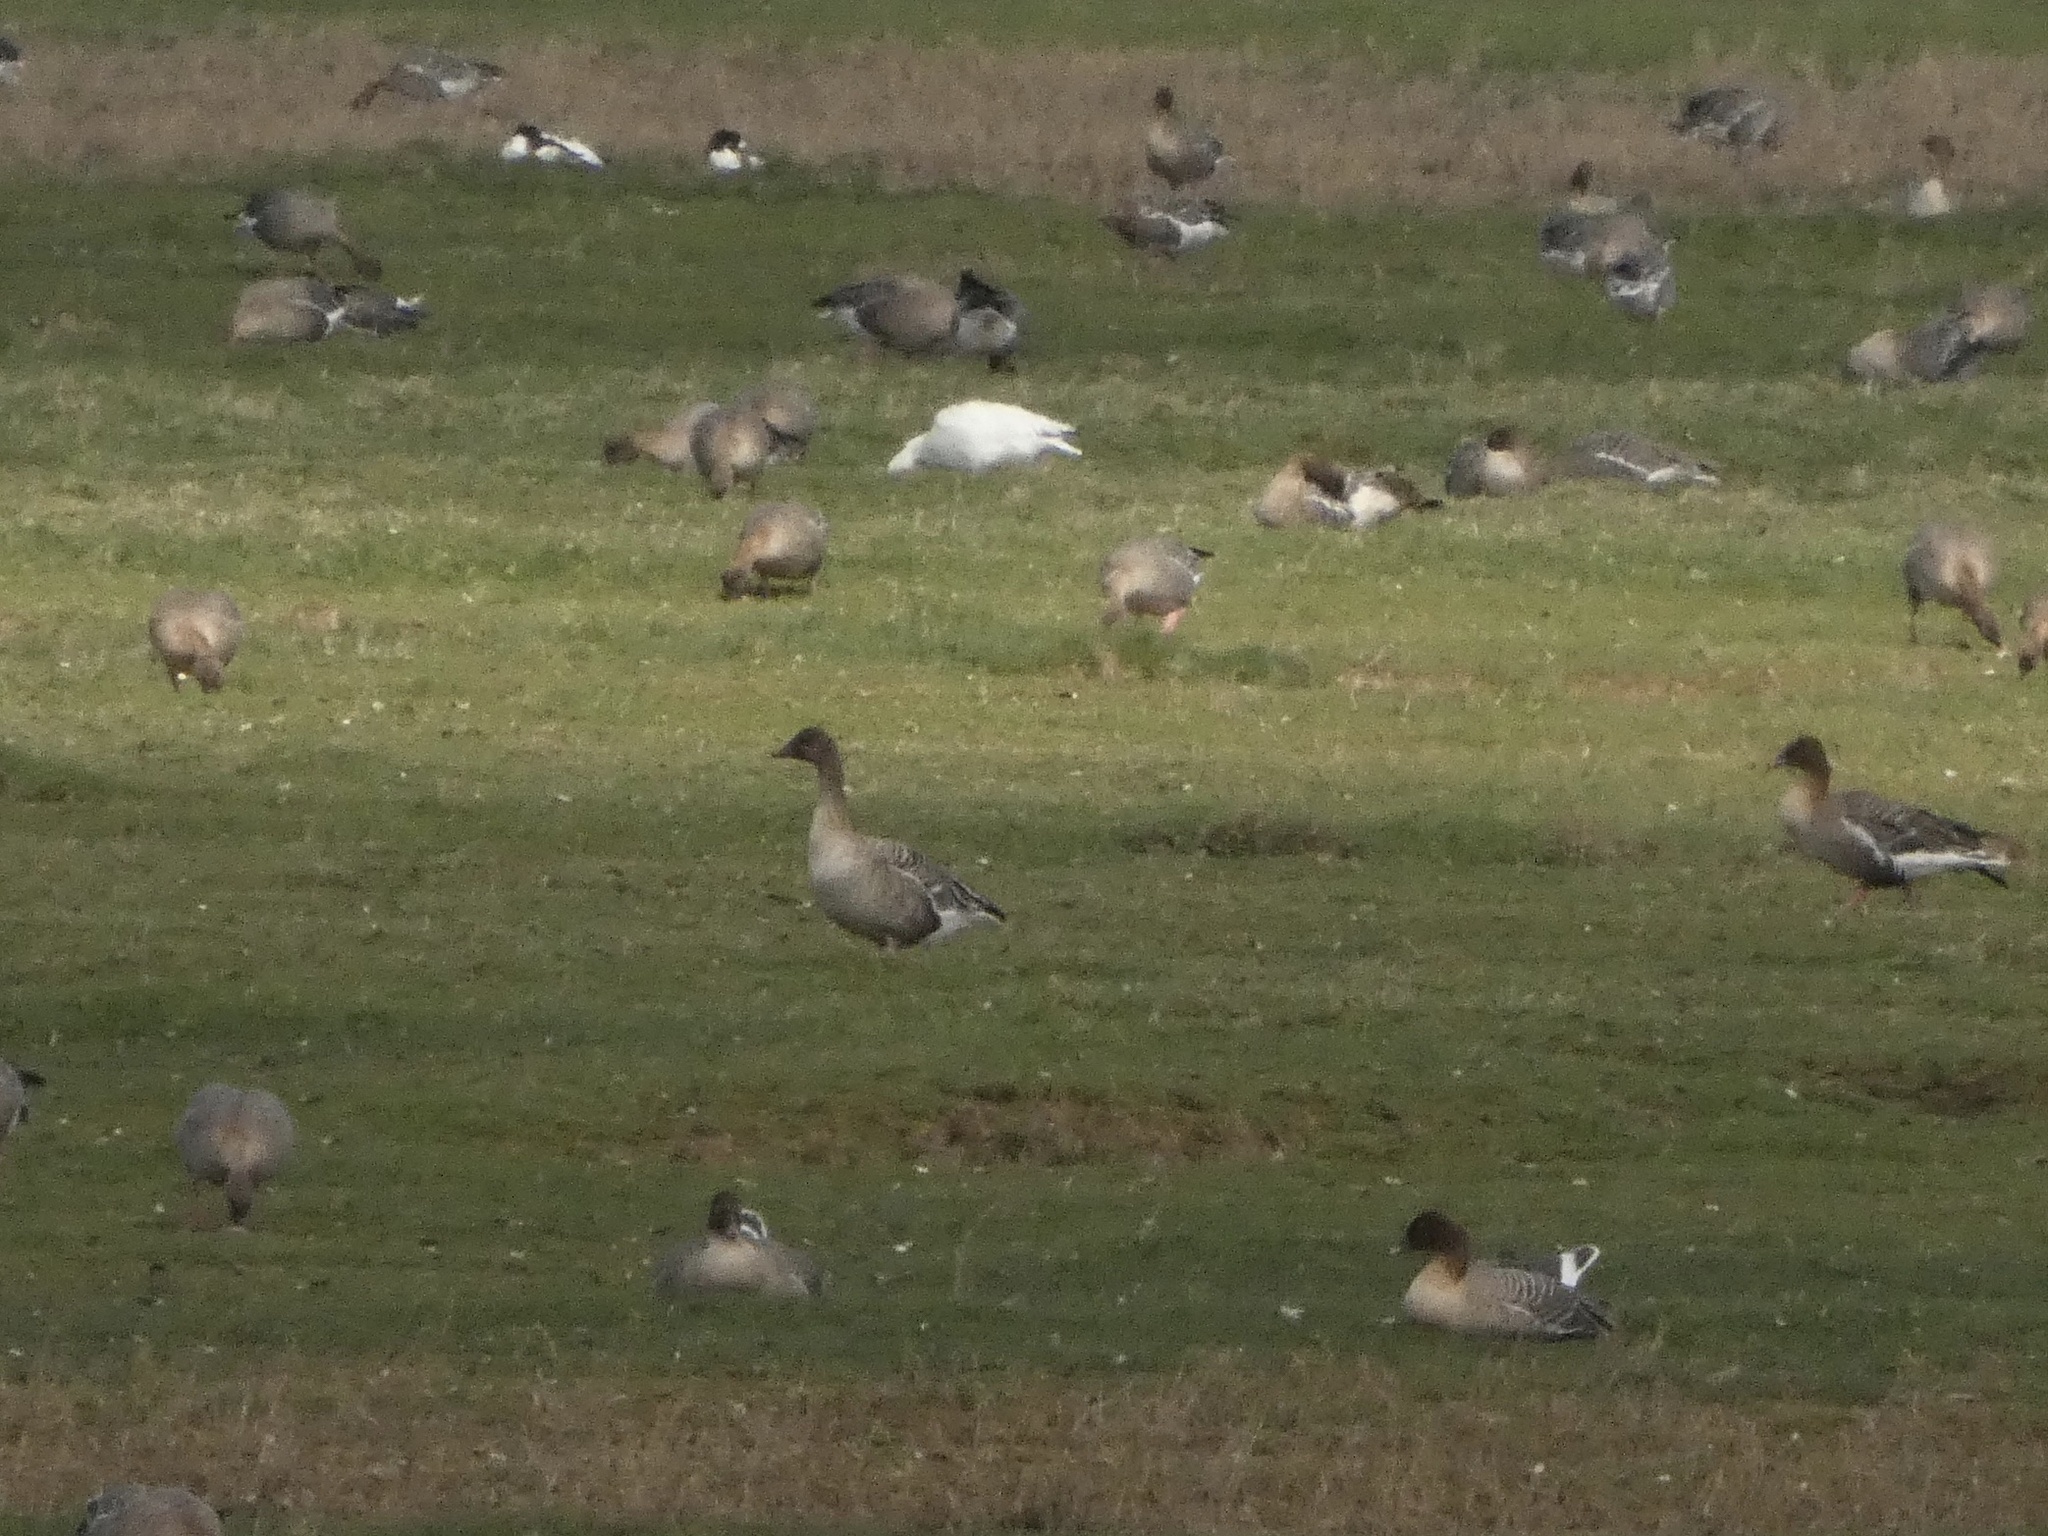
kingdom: Animalia
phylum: Chordata
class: Aves
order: Anseriformes
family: Anatidae
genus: Anser
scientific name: Anser caerulescens
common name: Snow goose
